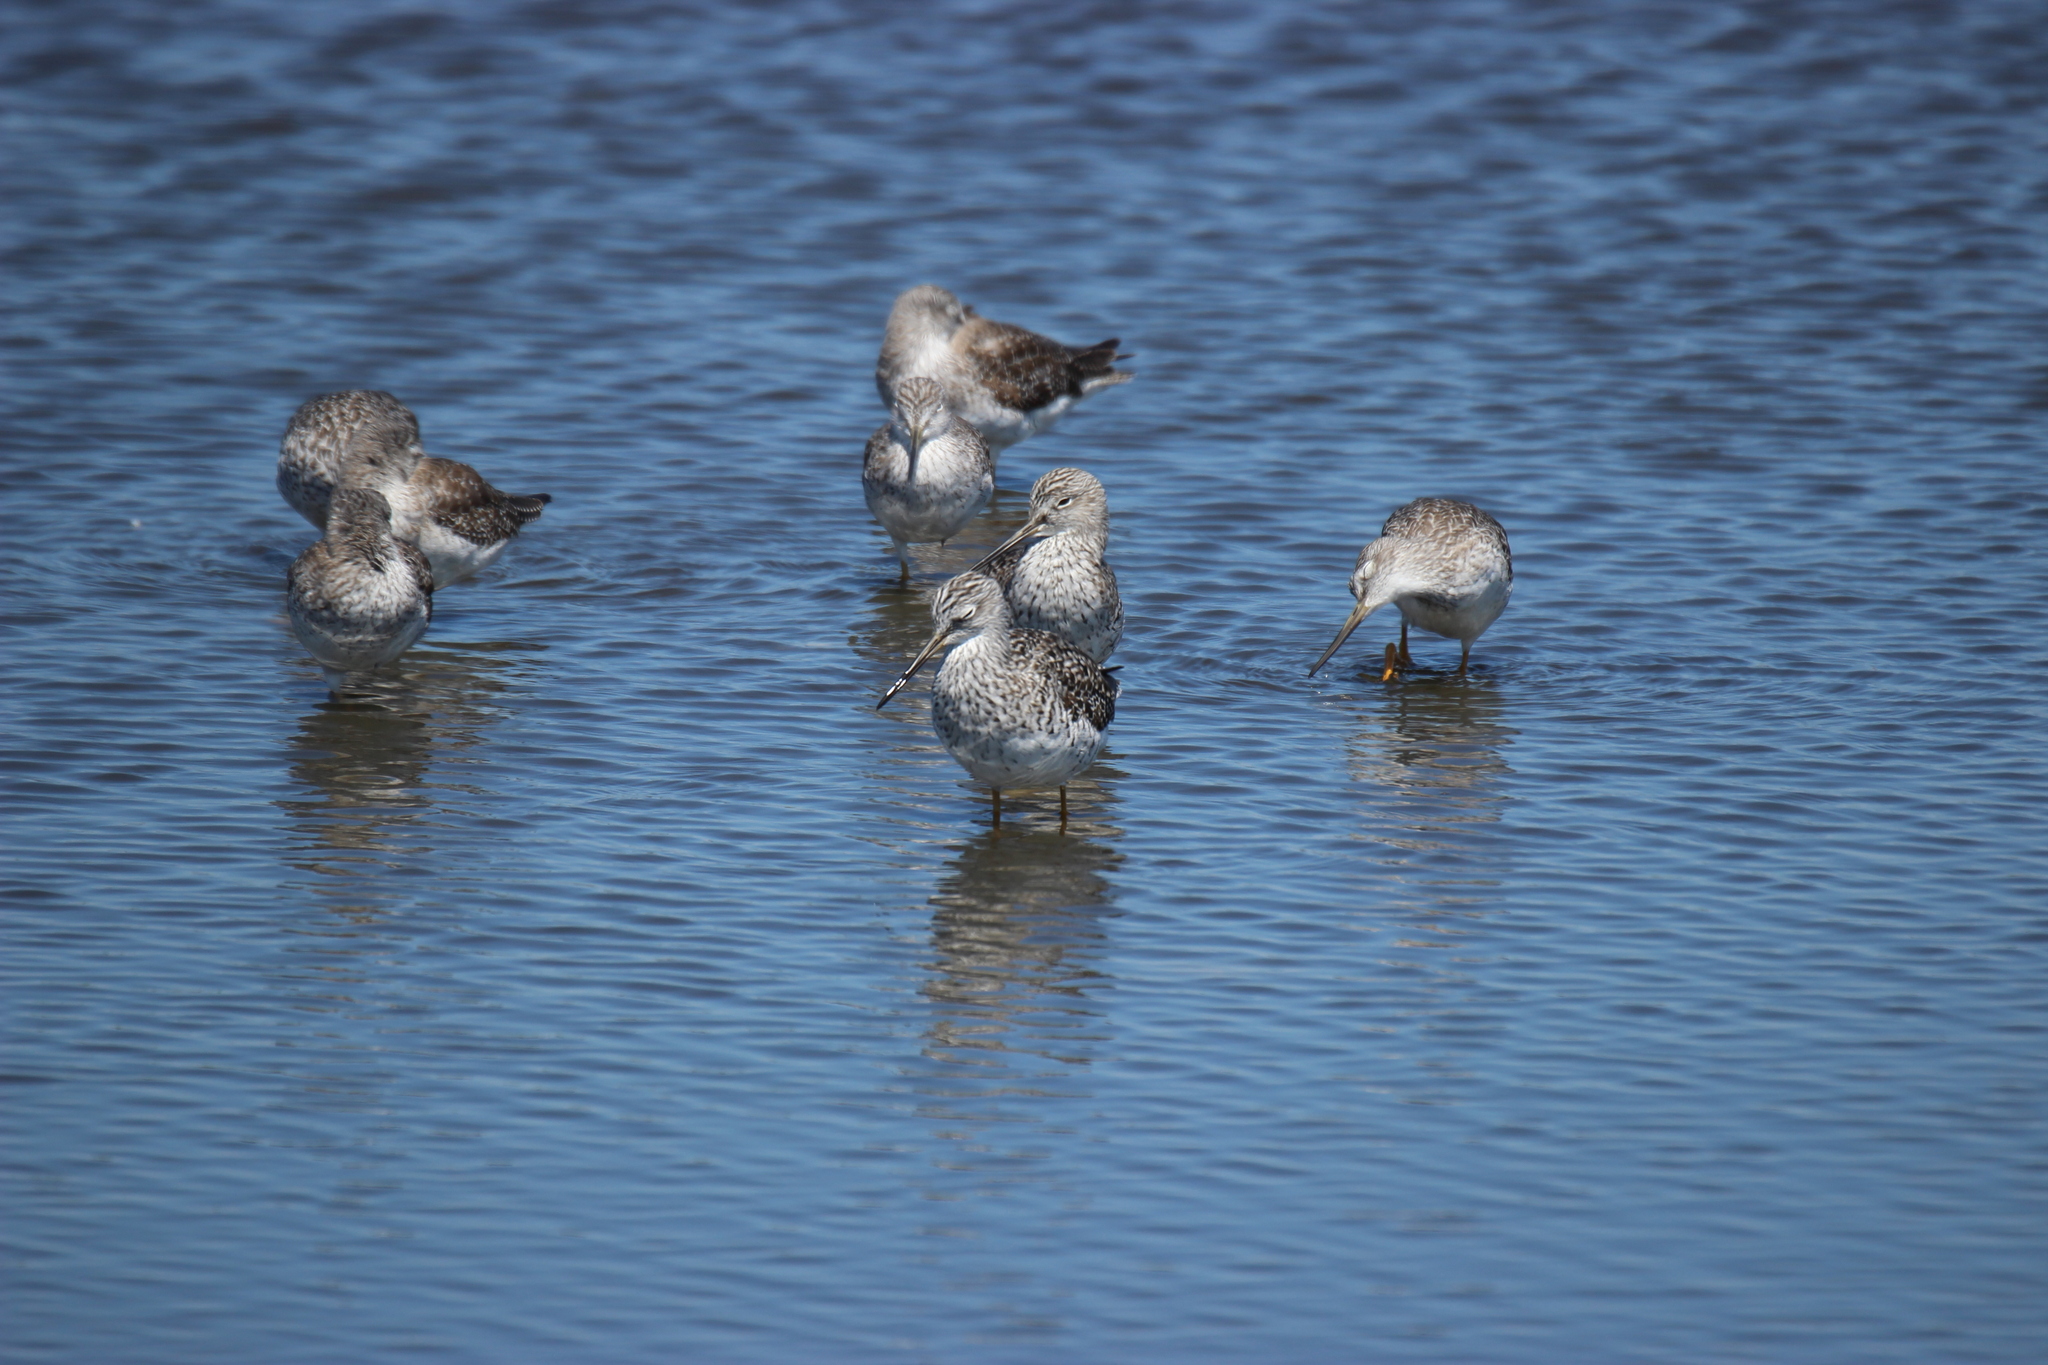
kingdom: Animalia
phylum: Chordata
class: Aves
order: Charadriiformes
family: Scolopacidae
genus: Tringa
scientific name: Tringa melanoleuca
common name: Greater yellowlegs
